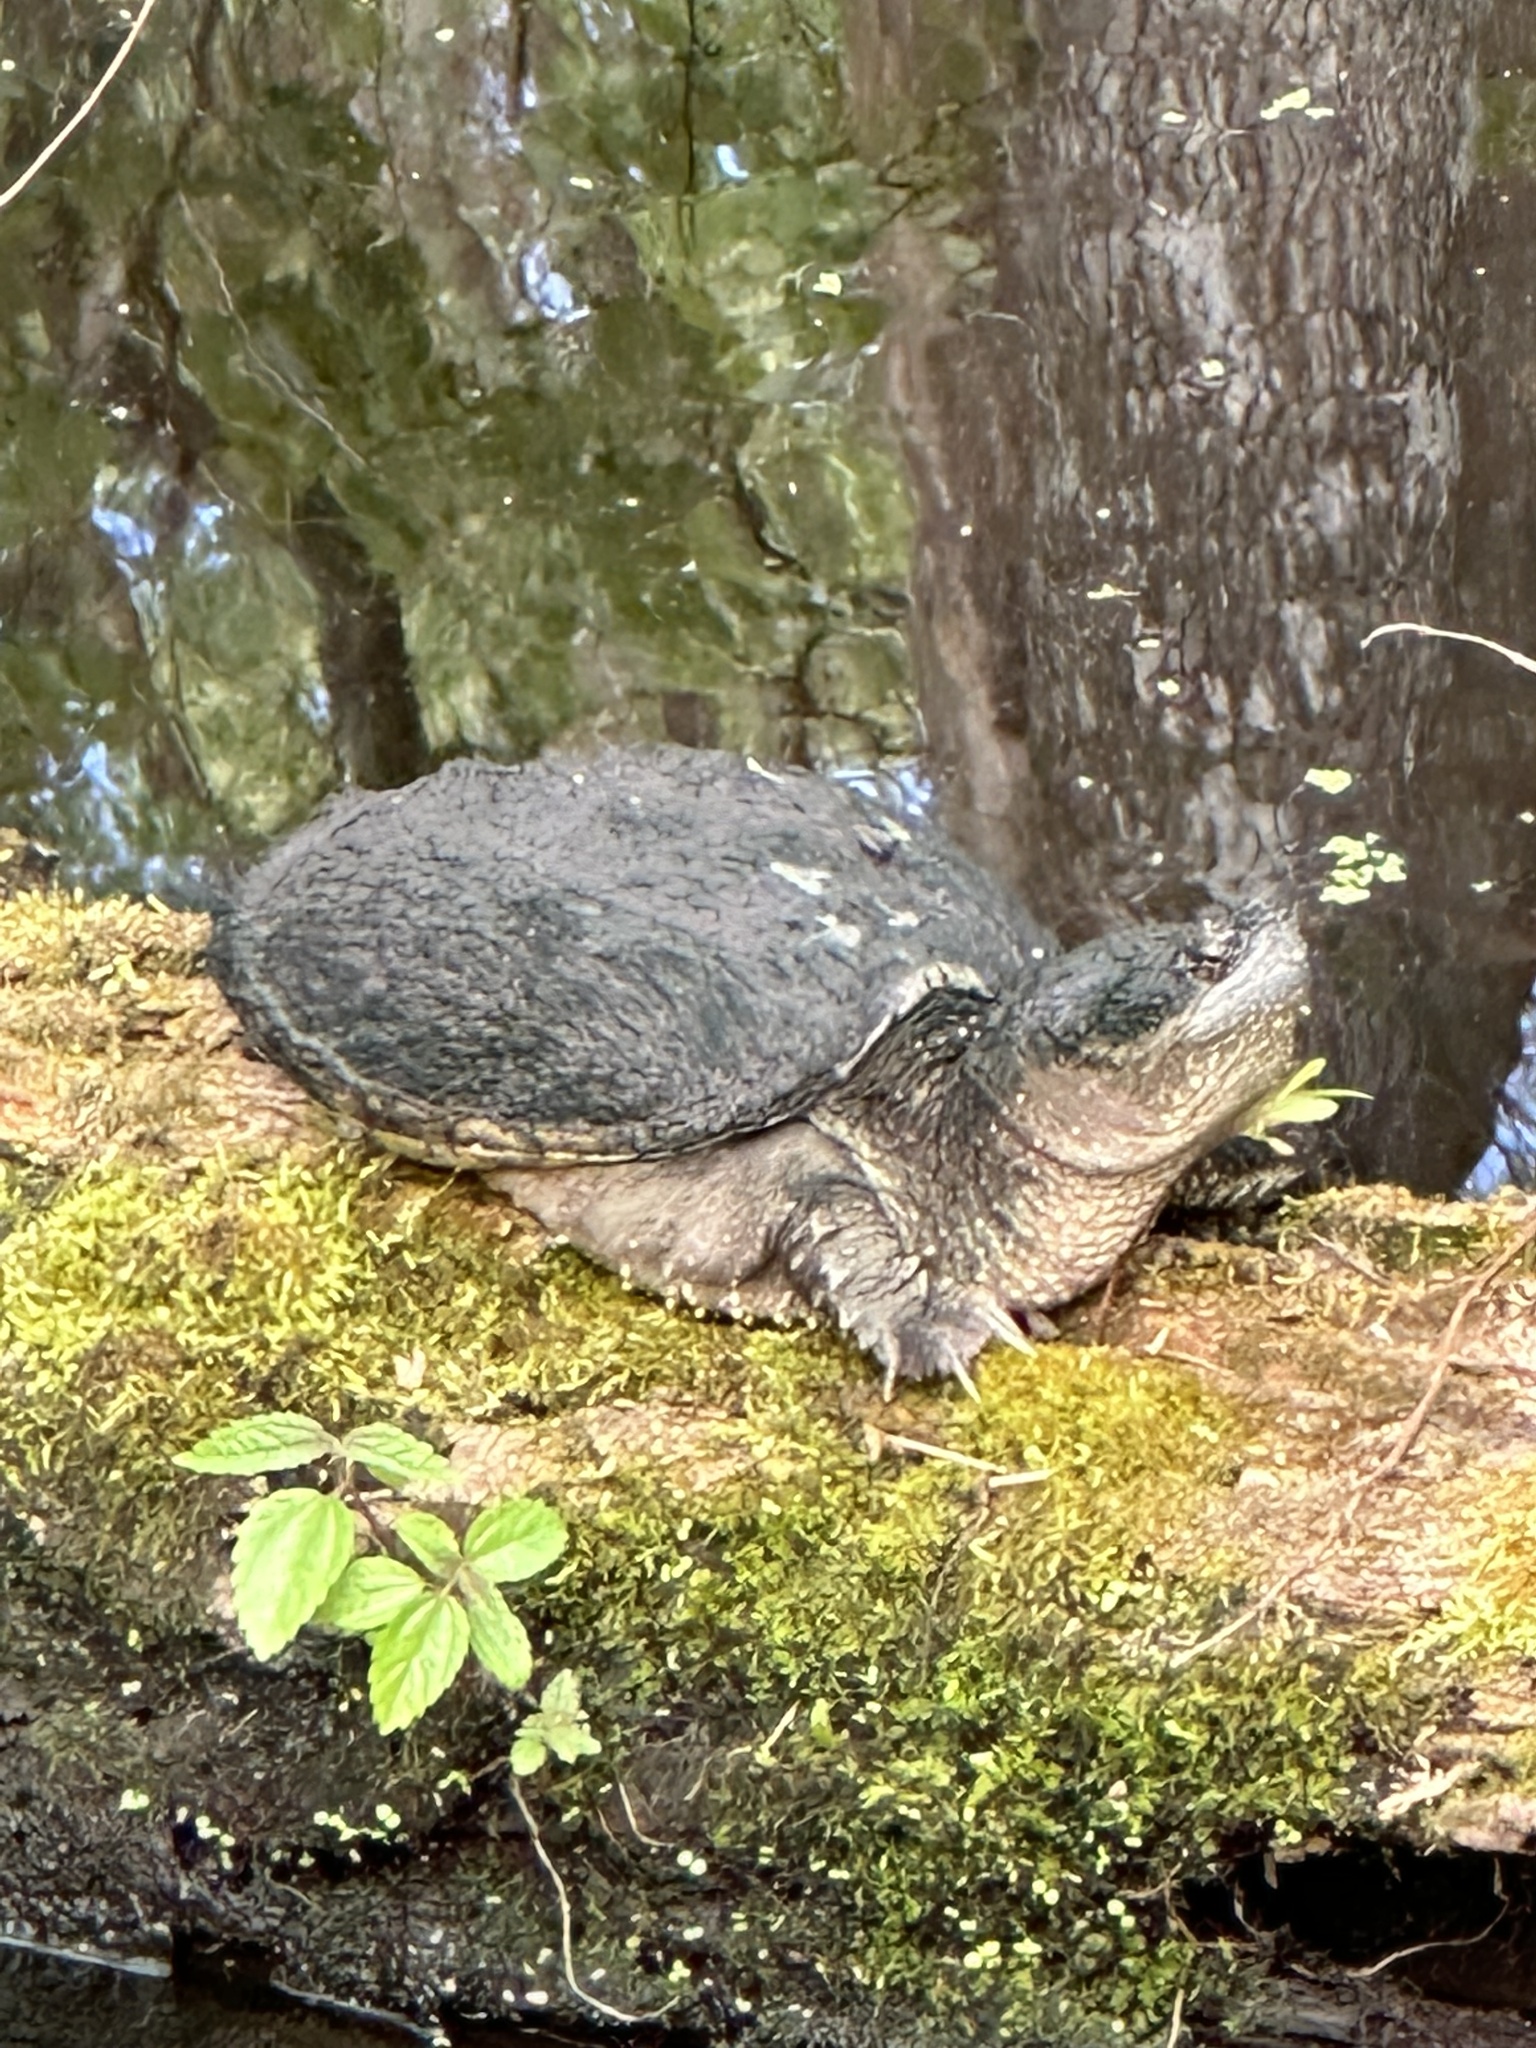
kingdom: Animalia
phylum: Chordata
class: Testudines
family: Chelydridae
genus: Chelydra
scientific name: Chelydra serpentina
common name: Common snapping turtle
